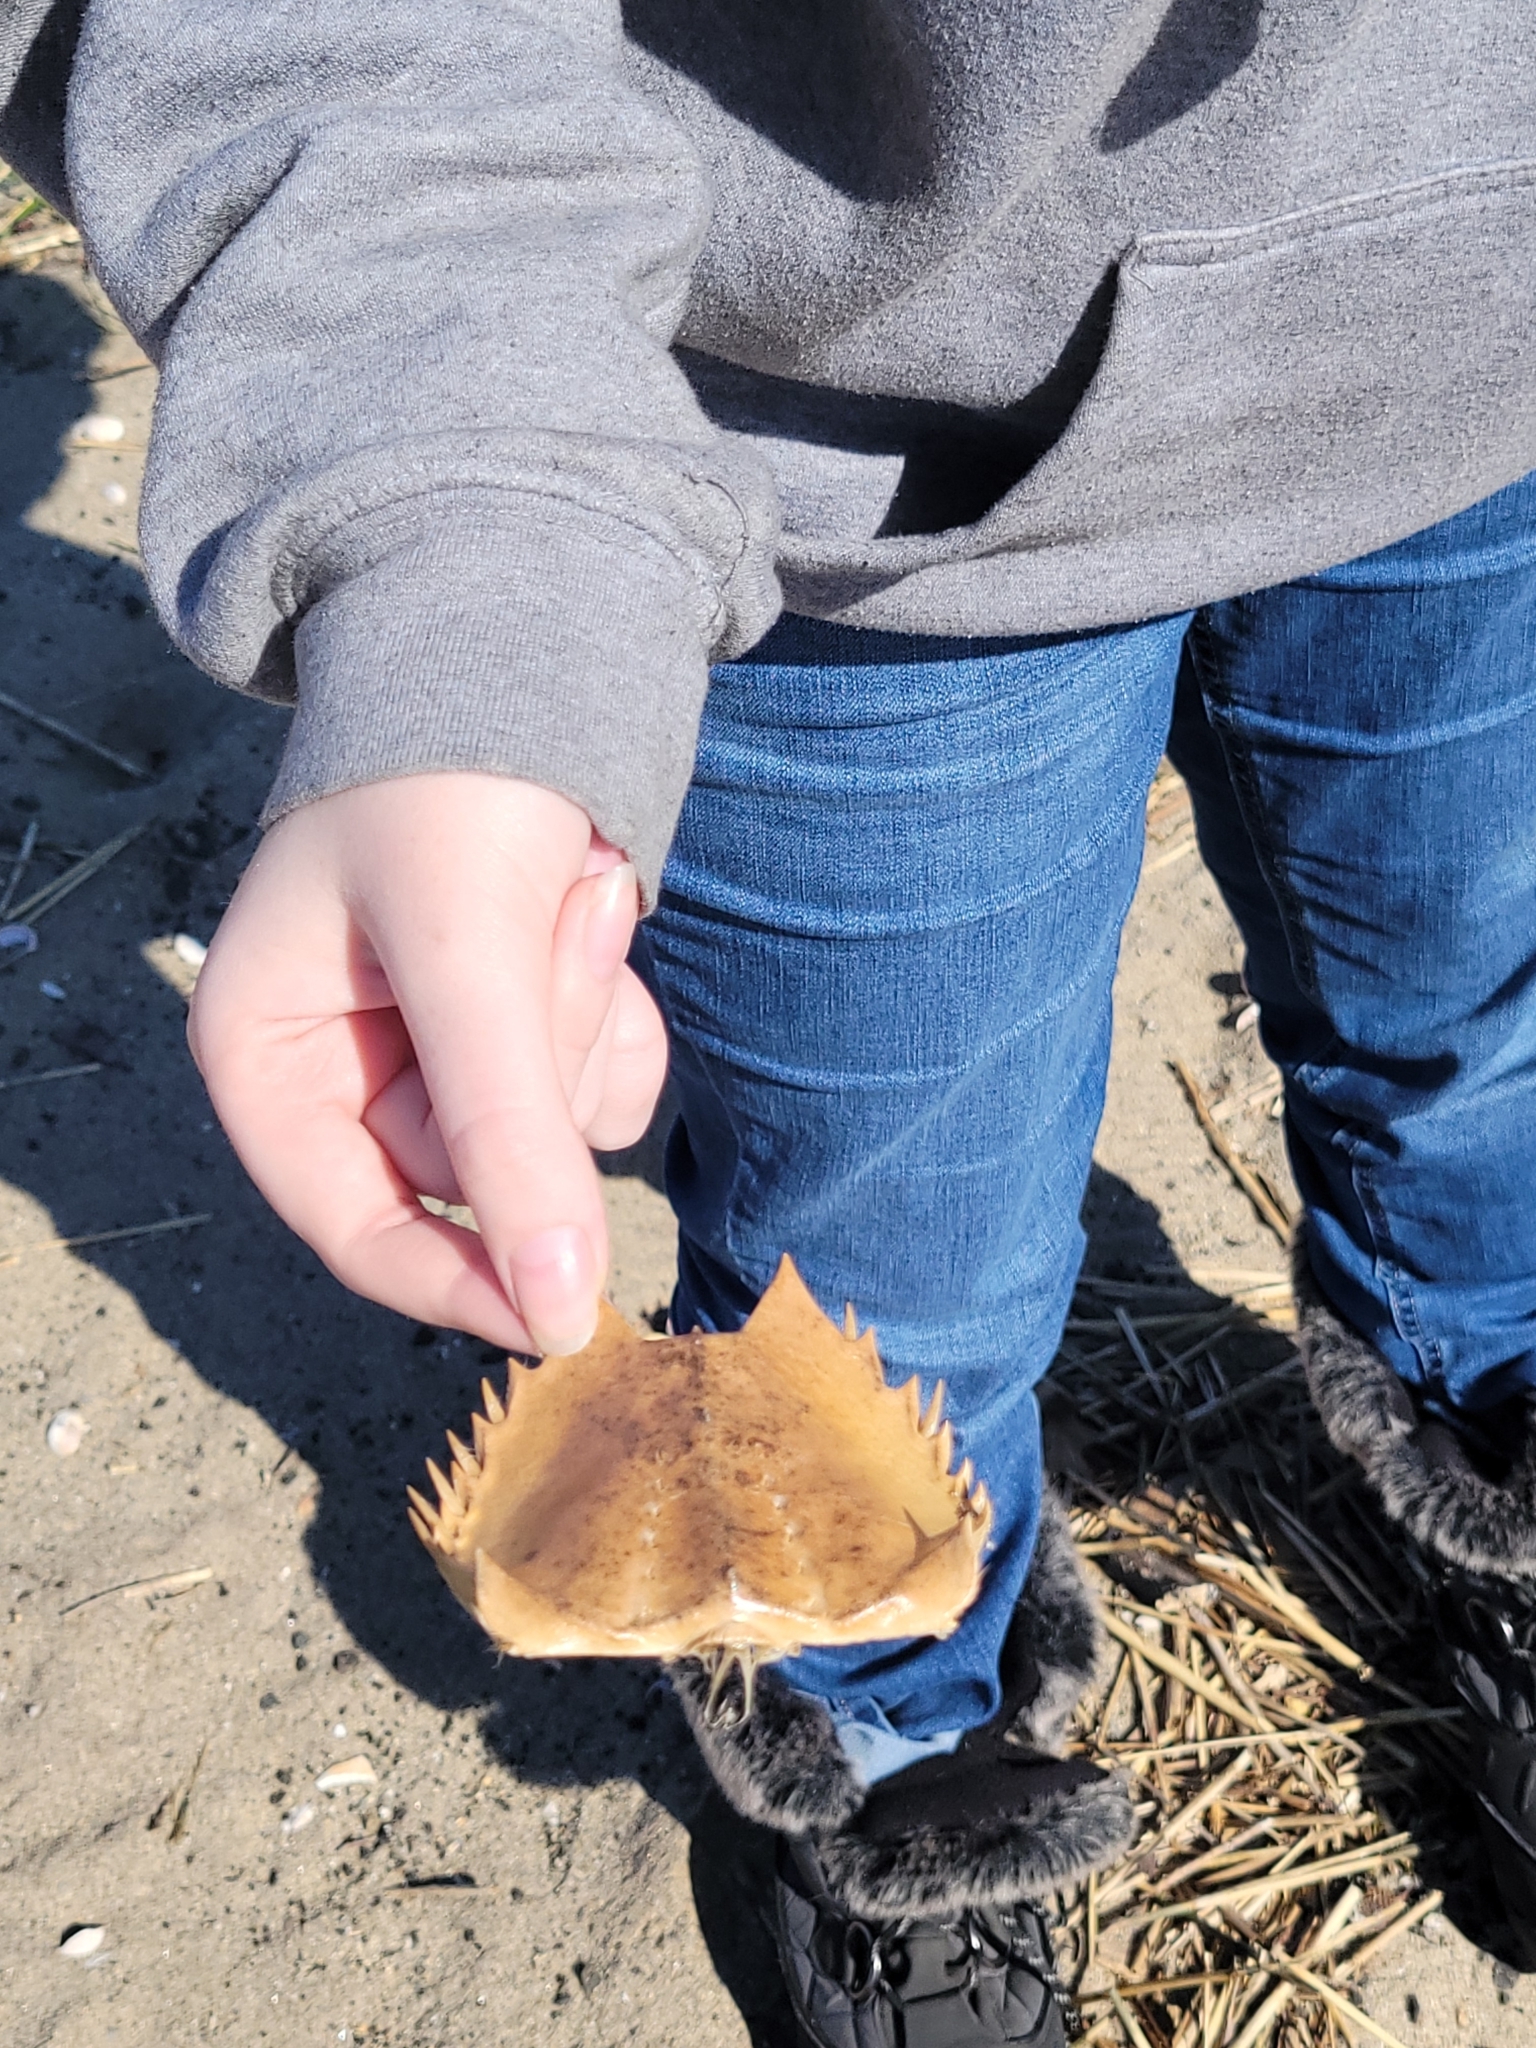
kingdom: Animalia
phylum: Arthropoda
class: Merostomata
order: Xiphosurida
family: Limulidae
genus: Limulus
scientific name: Limulus polyphemus
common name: Horseshoe crab
